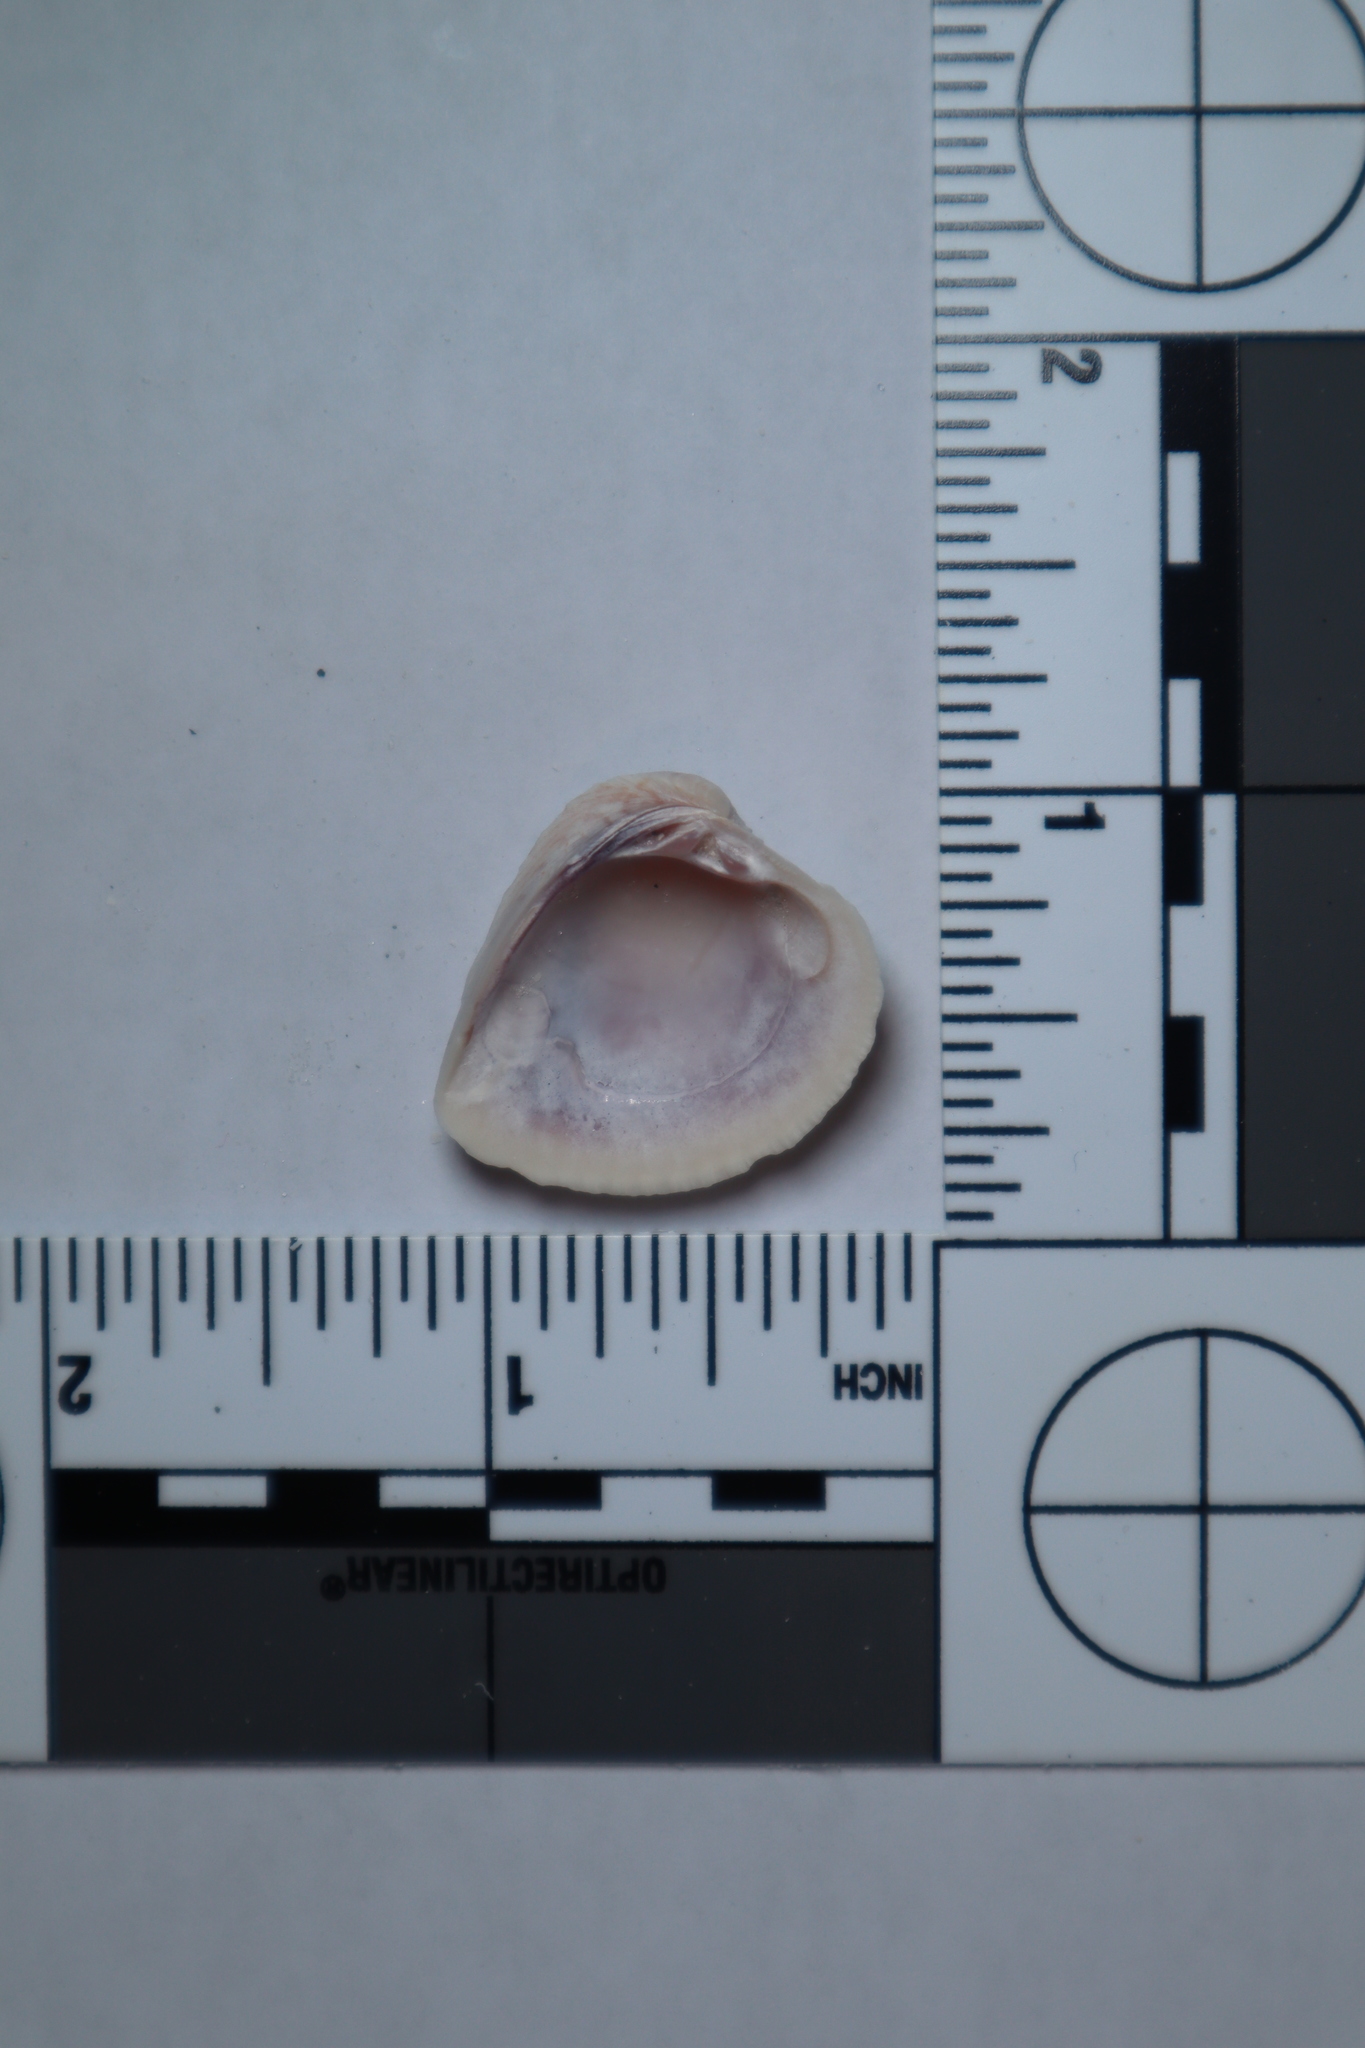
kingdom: Animalia
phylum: Mollusca
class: Bivalvia
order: Venerida
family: Veneridae
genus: Chione
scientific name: Chione elevata
